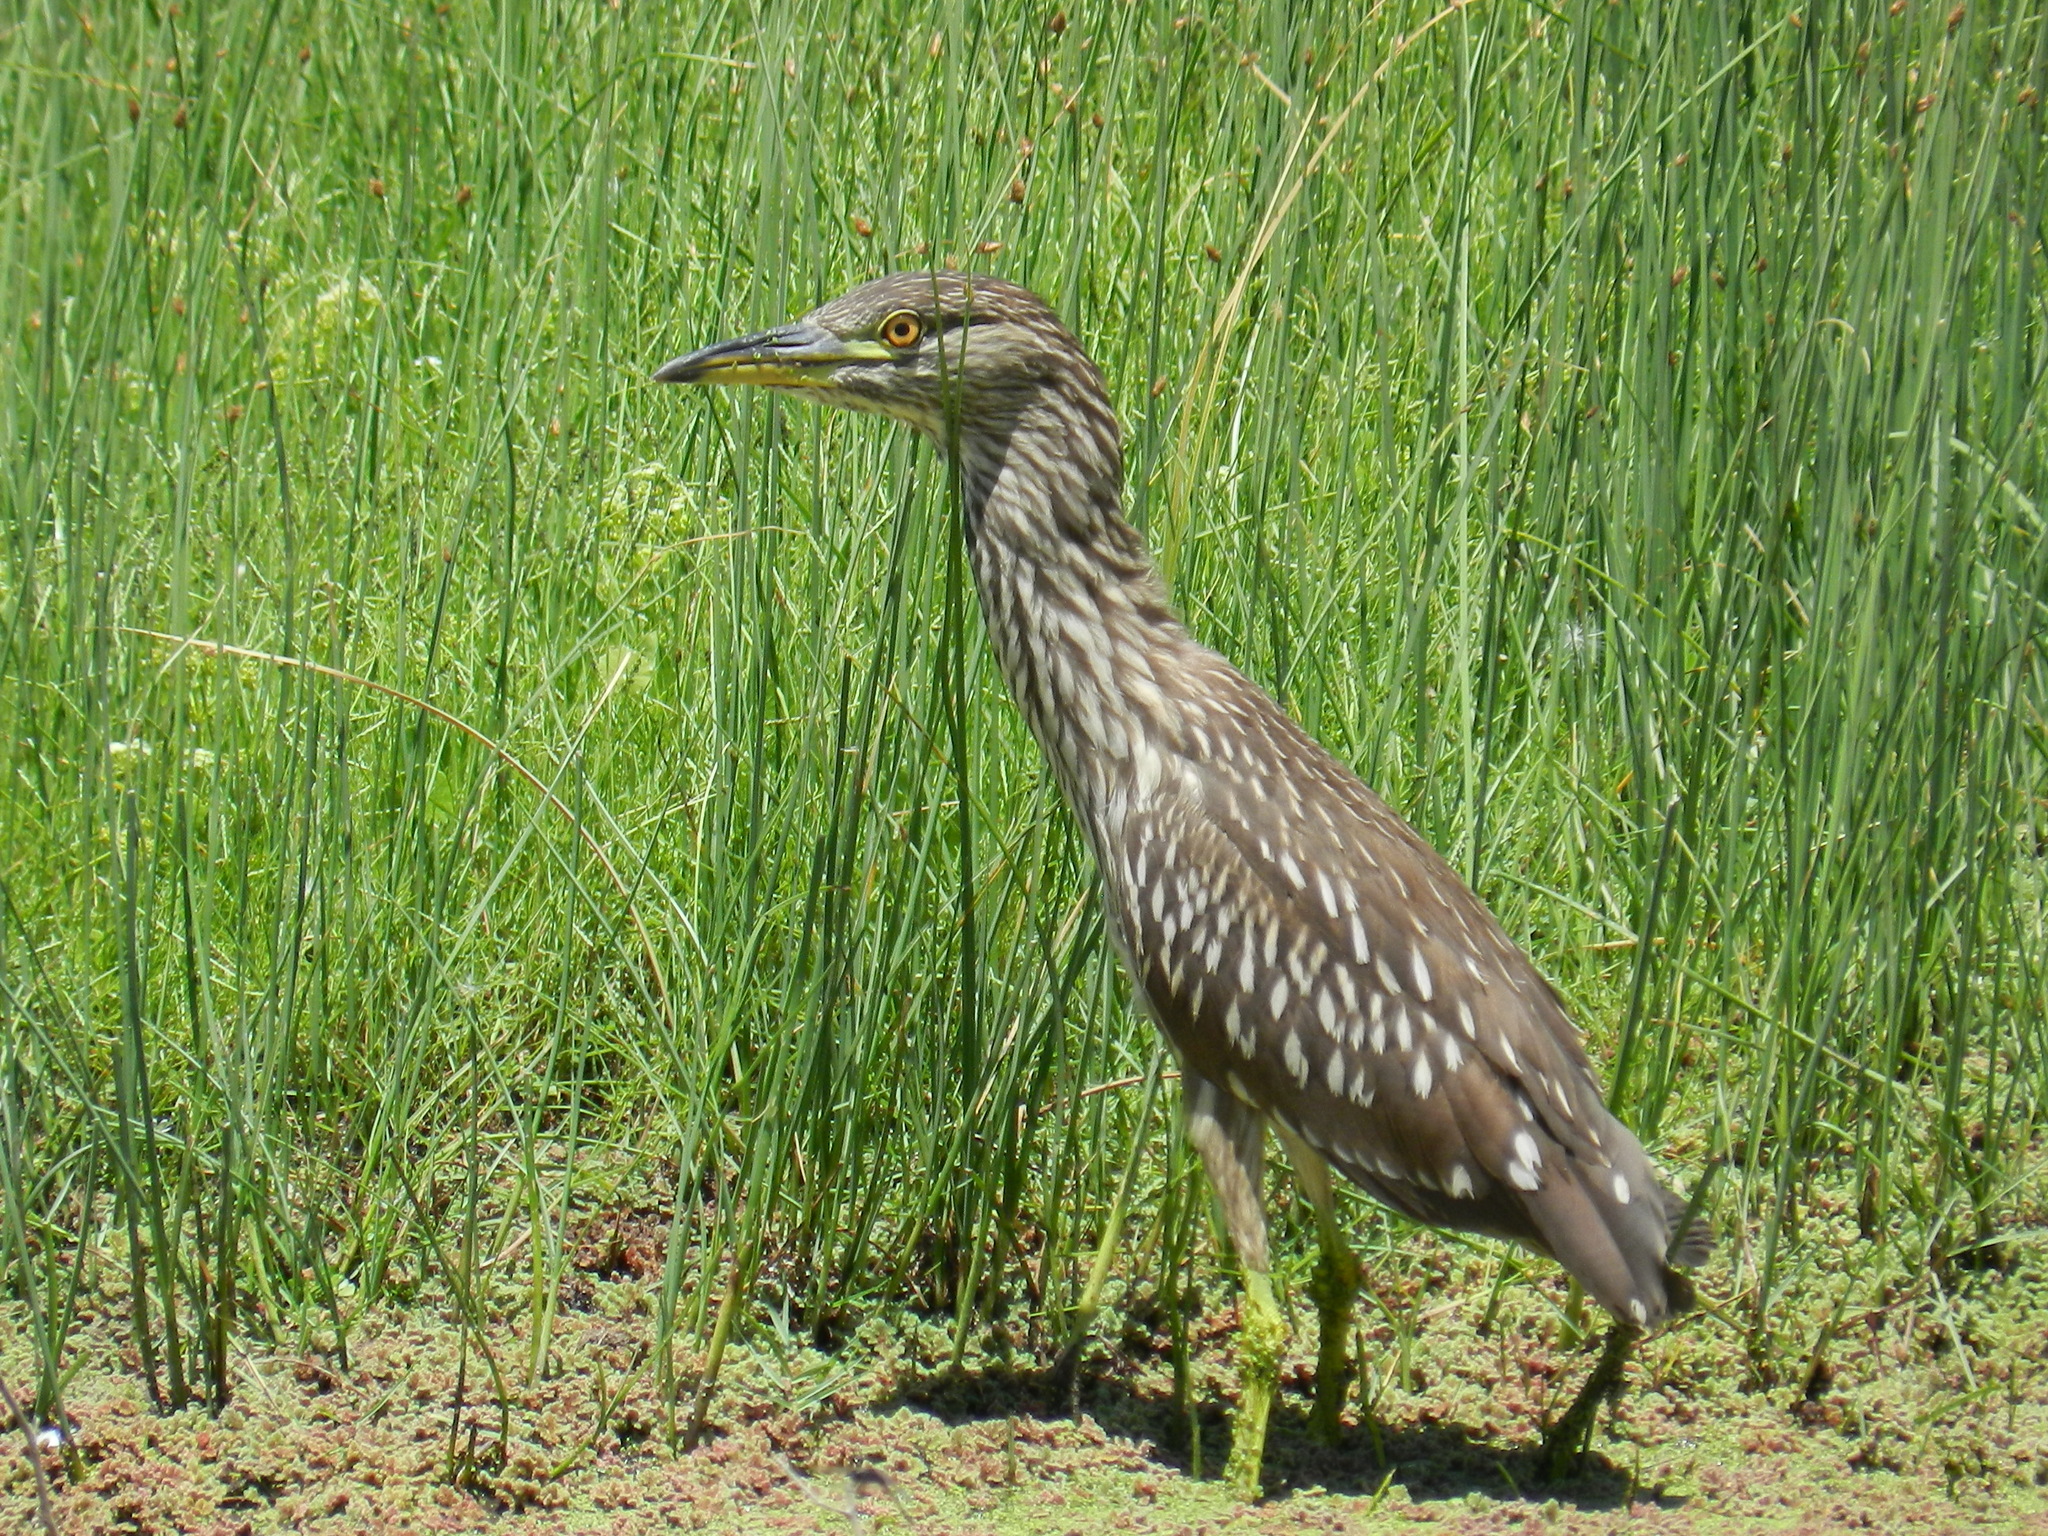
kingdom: Animalia
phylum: Chordata
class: Aves
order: Pelecaniformes
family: Ardeidae
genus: Nycticorax
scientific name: Nycticorax nycticorax
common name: Black-crowned night heron
